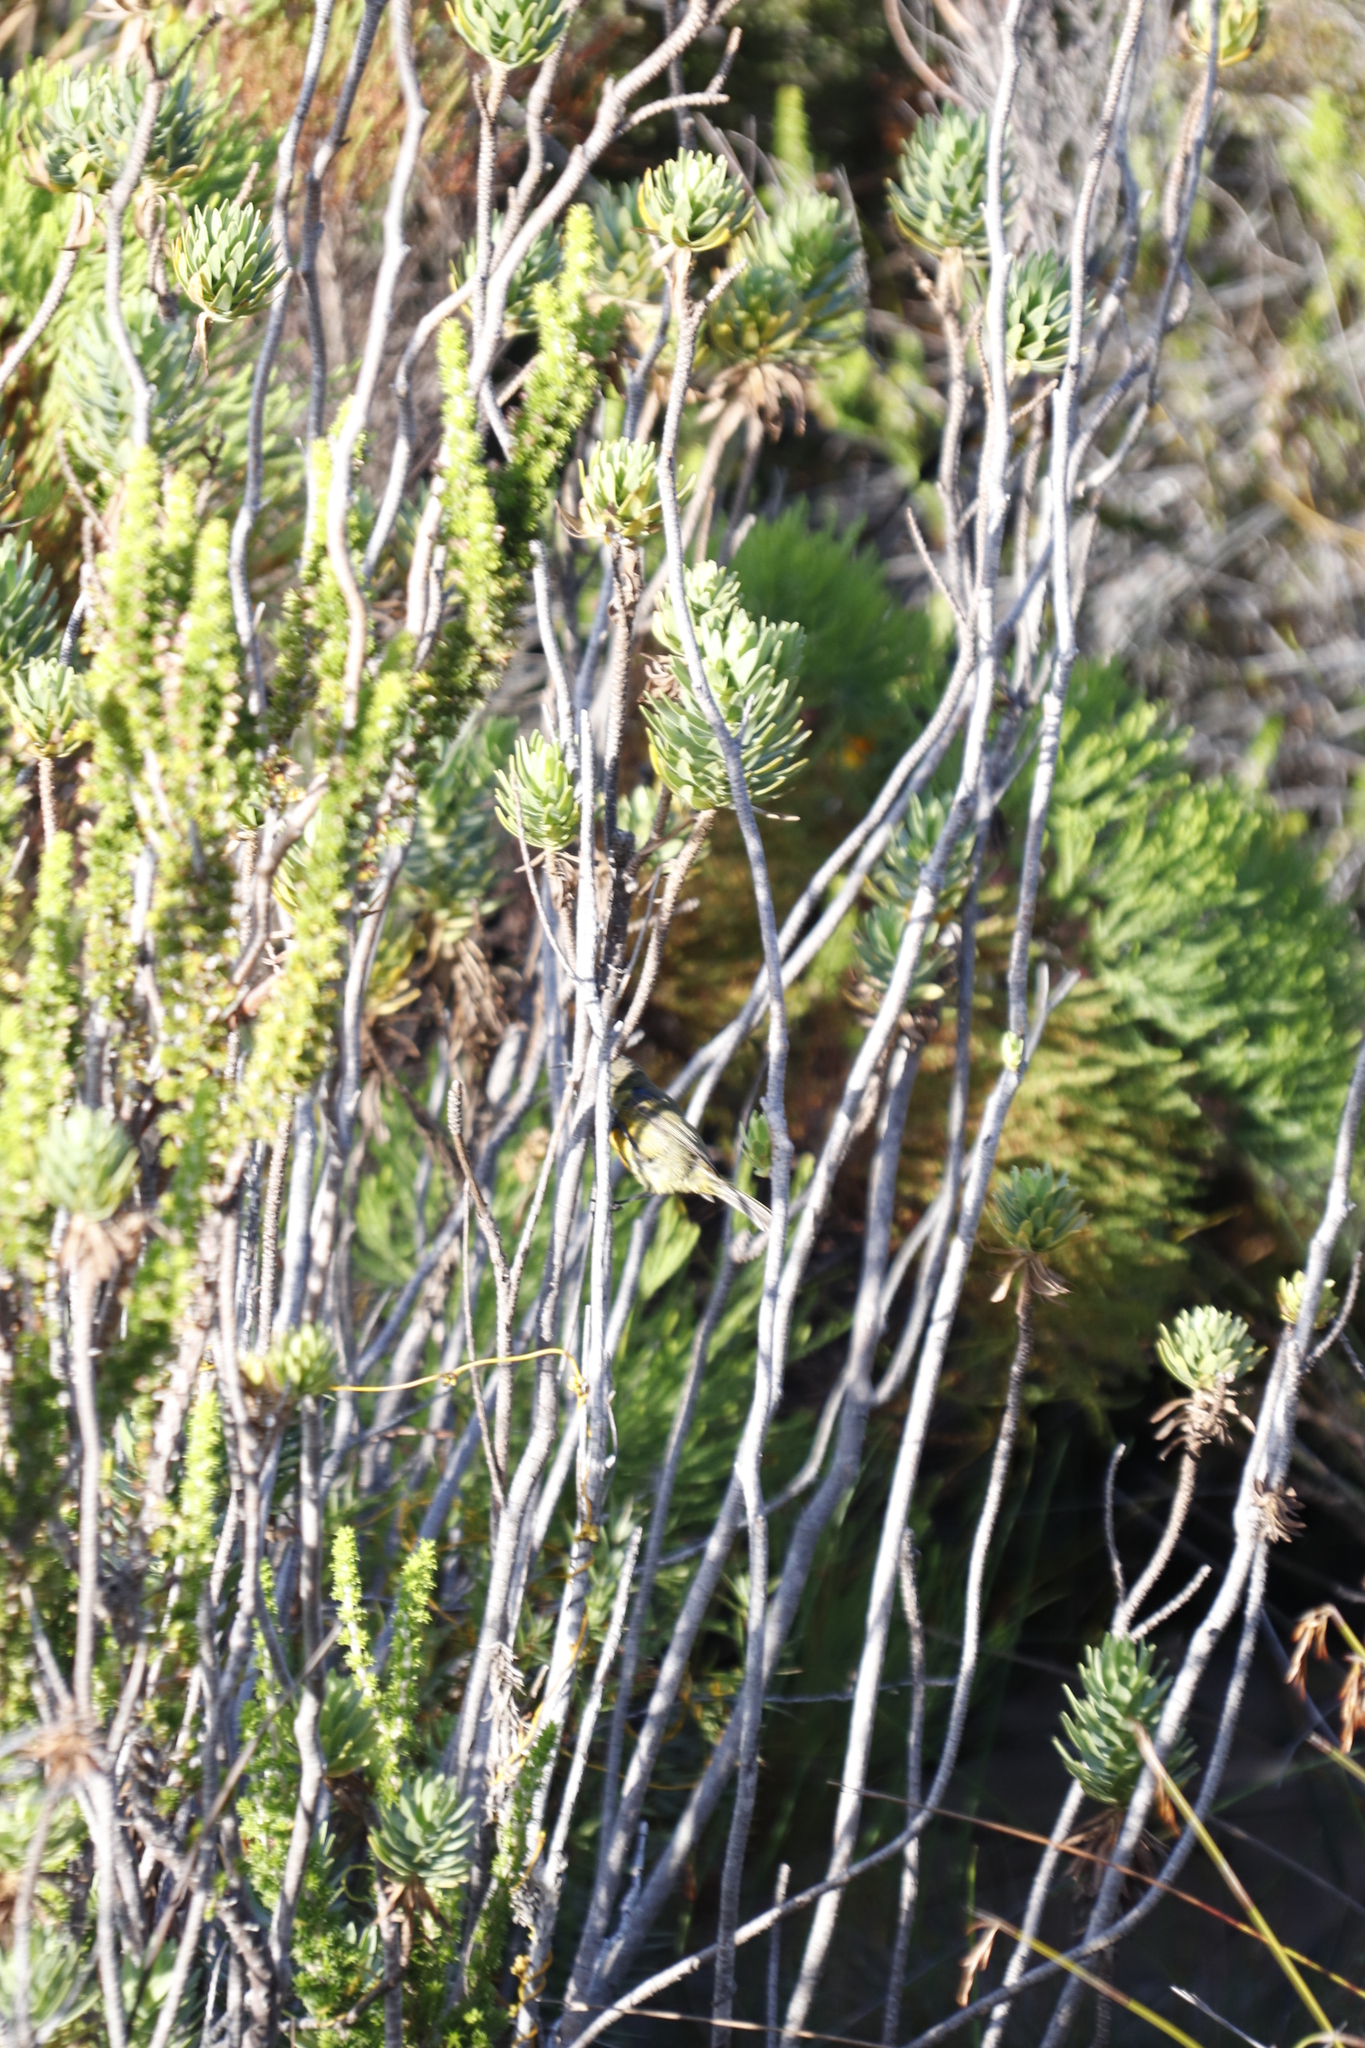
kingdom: Animalia
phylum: Chordata
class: Aves
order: Passeriformes
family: Nectariniidae
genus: Anthobaphes
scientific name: Anthobaphes violacea
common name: Orange-breasted sunbird
